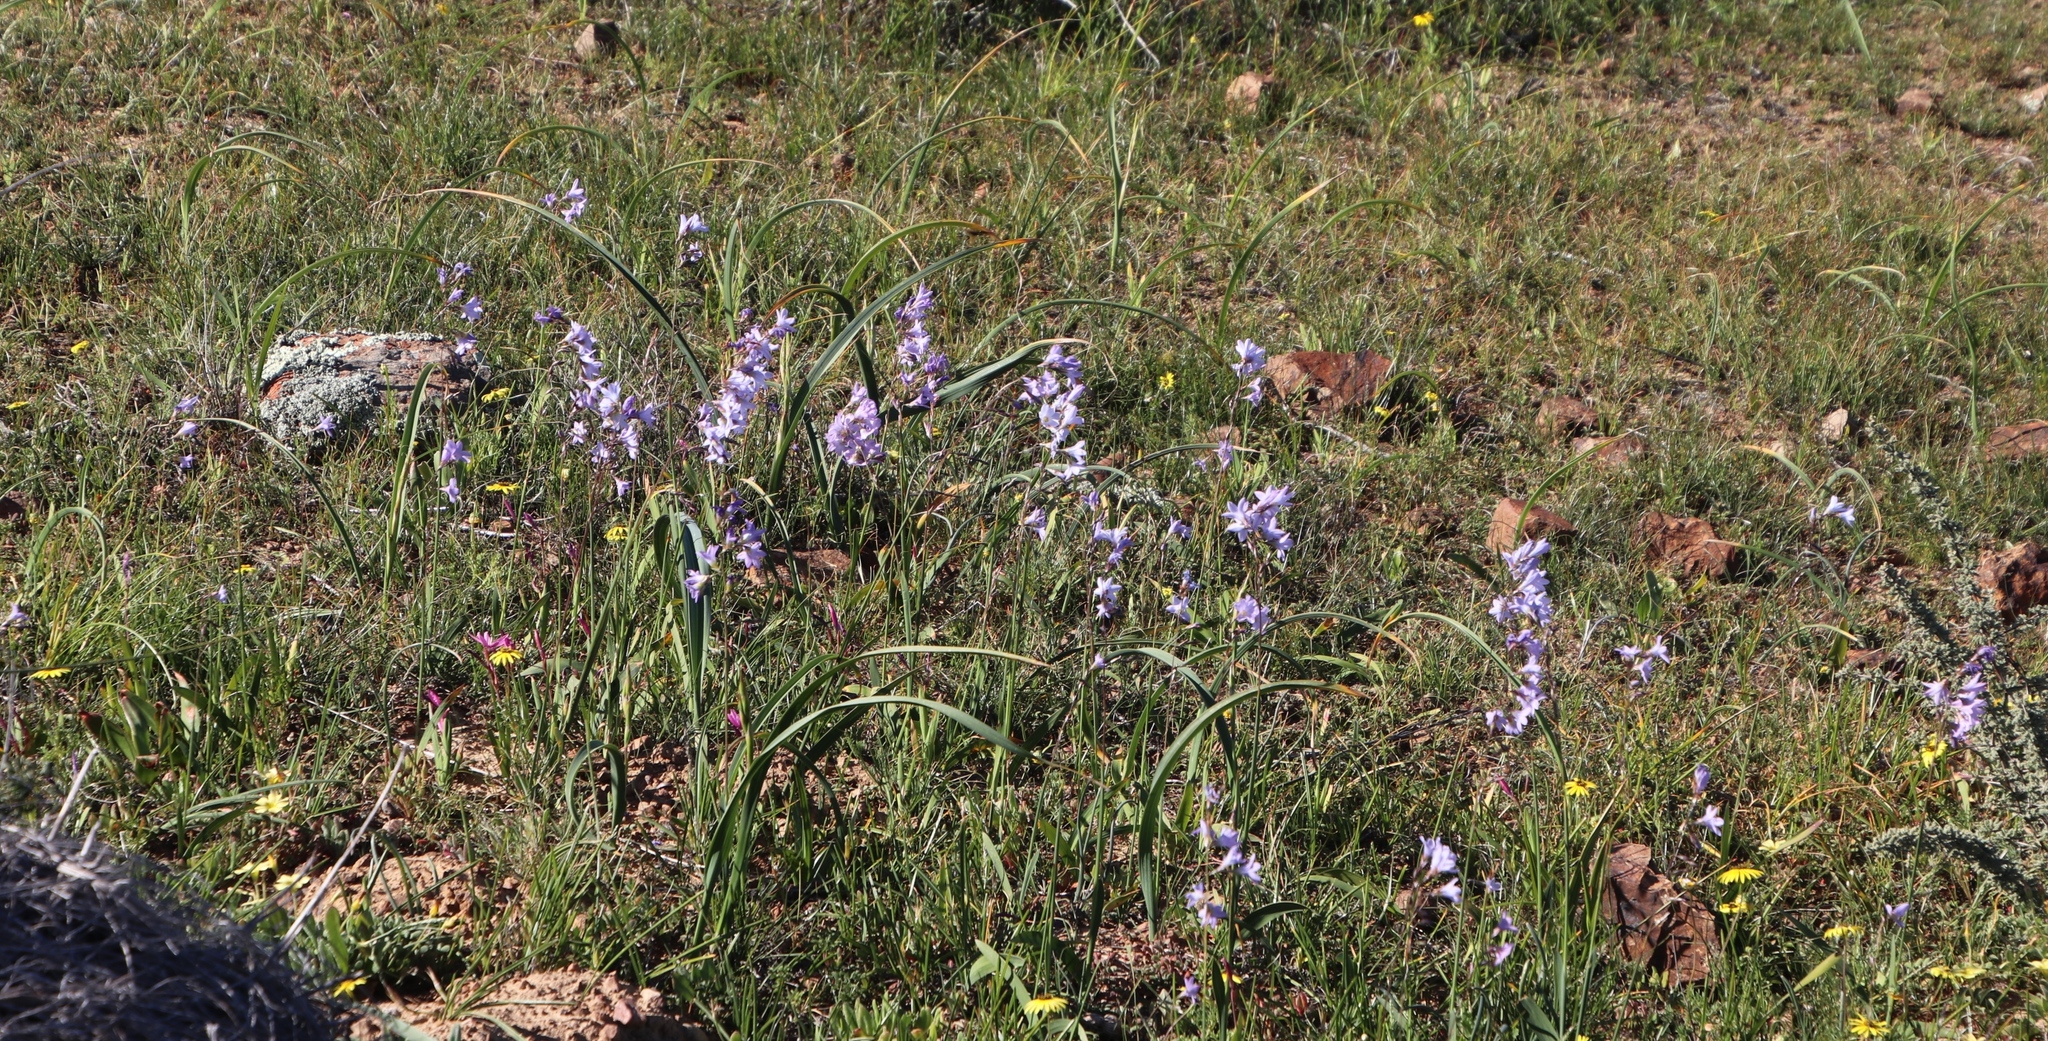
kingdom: Plantae
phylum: Tracheophyta
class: Liliopsida
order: Asparagales
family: Iridaceae
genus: Ixia
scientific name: Ixia rapunculoides
